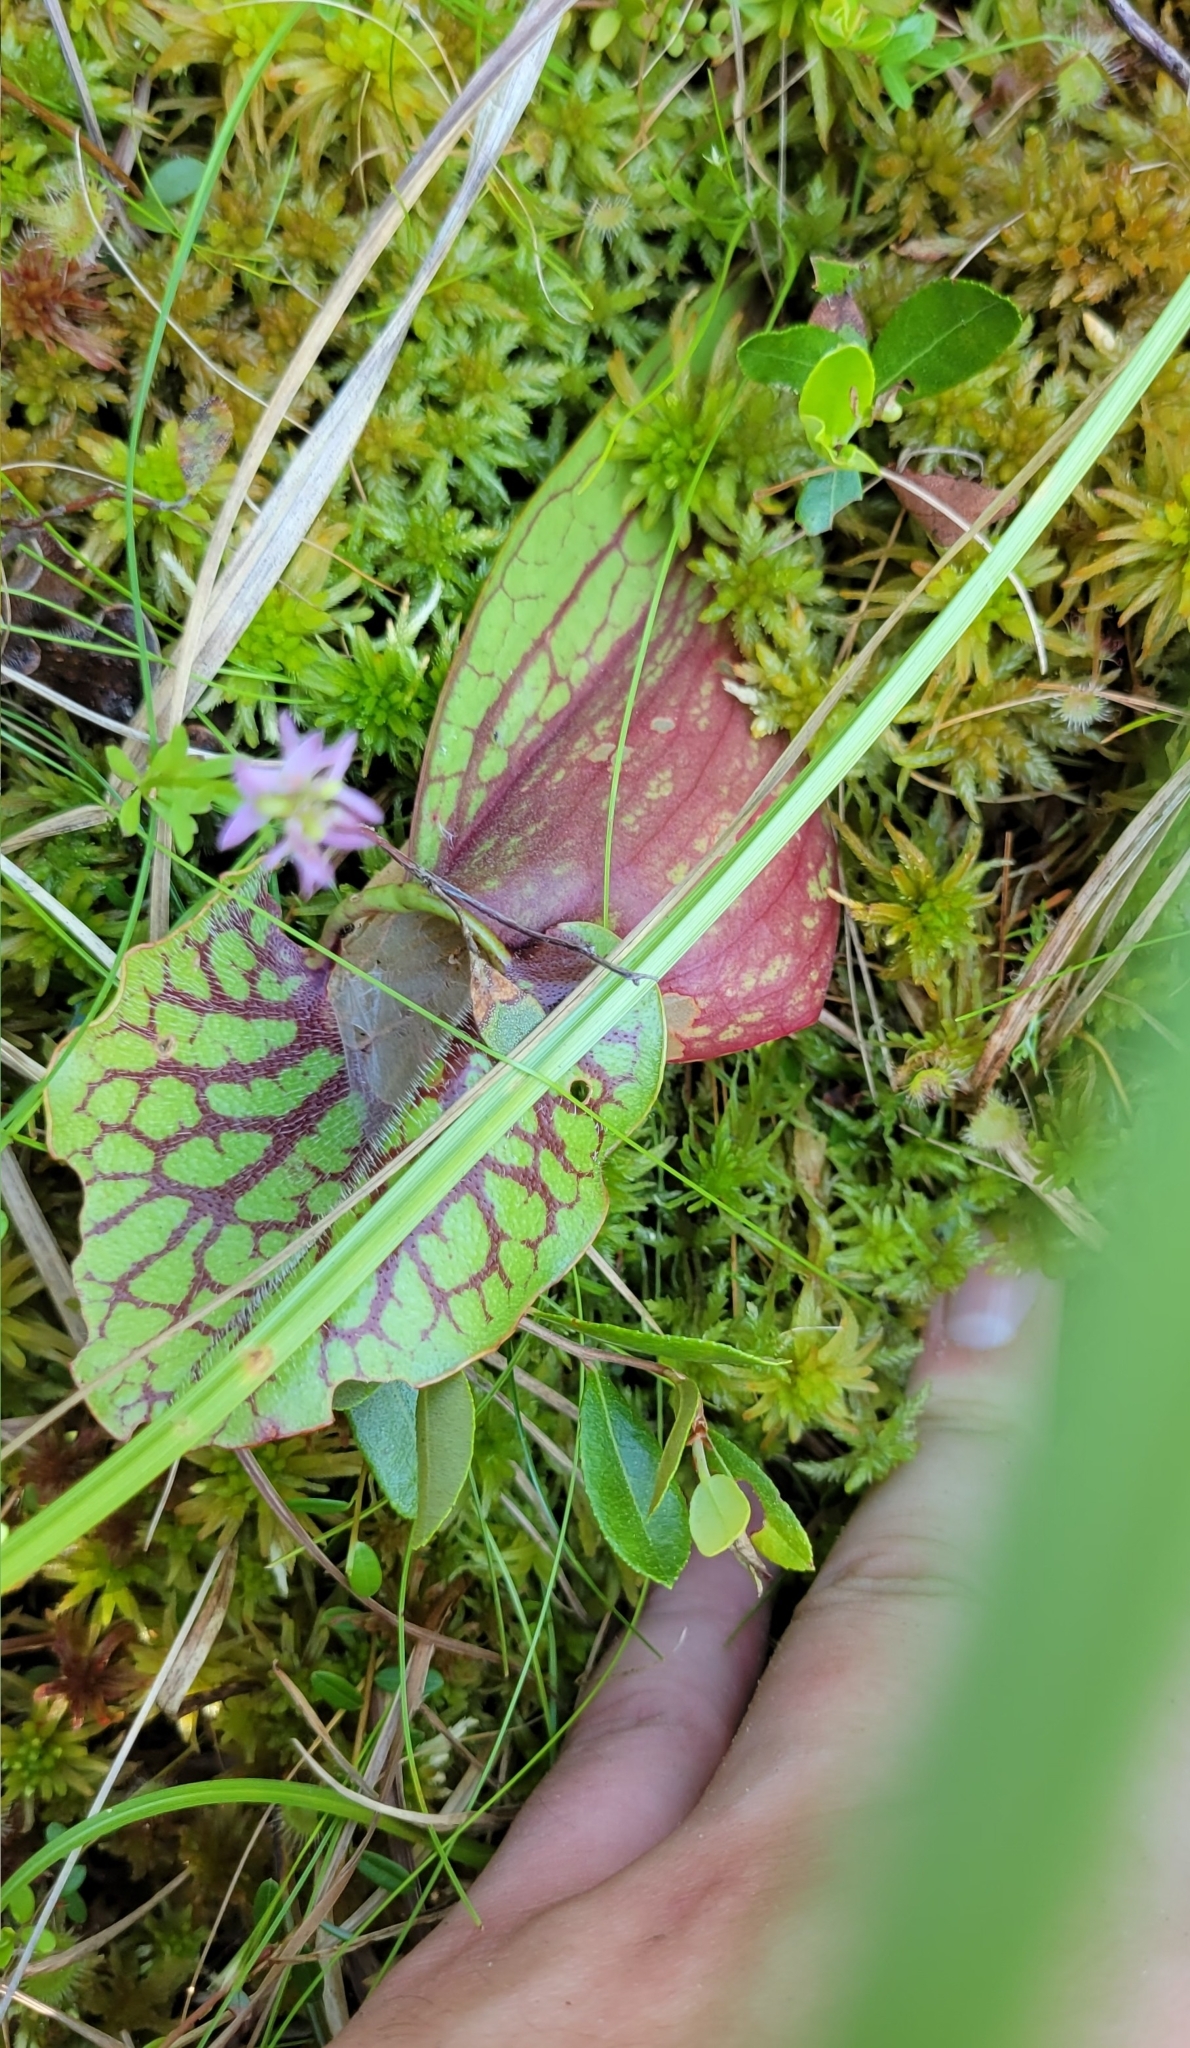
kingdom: Plantae
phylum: Tracheophyta
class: Magnoliopsida
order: Ericales
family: Sarraceniaceae
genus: Sarracenia
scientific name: Sarracenia purpurea
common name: Pitcherplant
